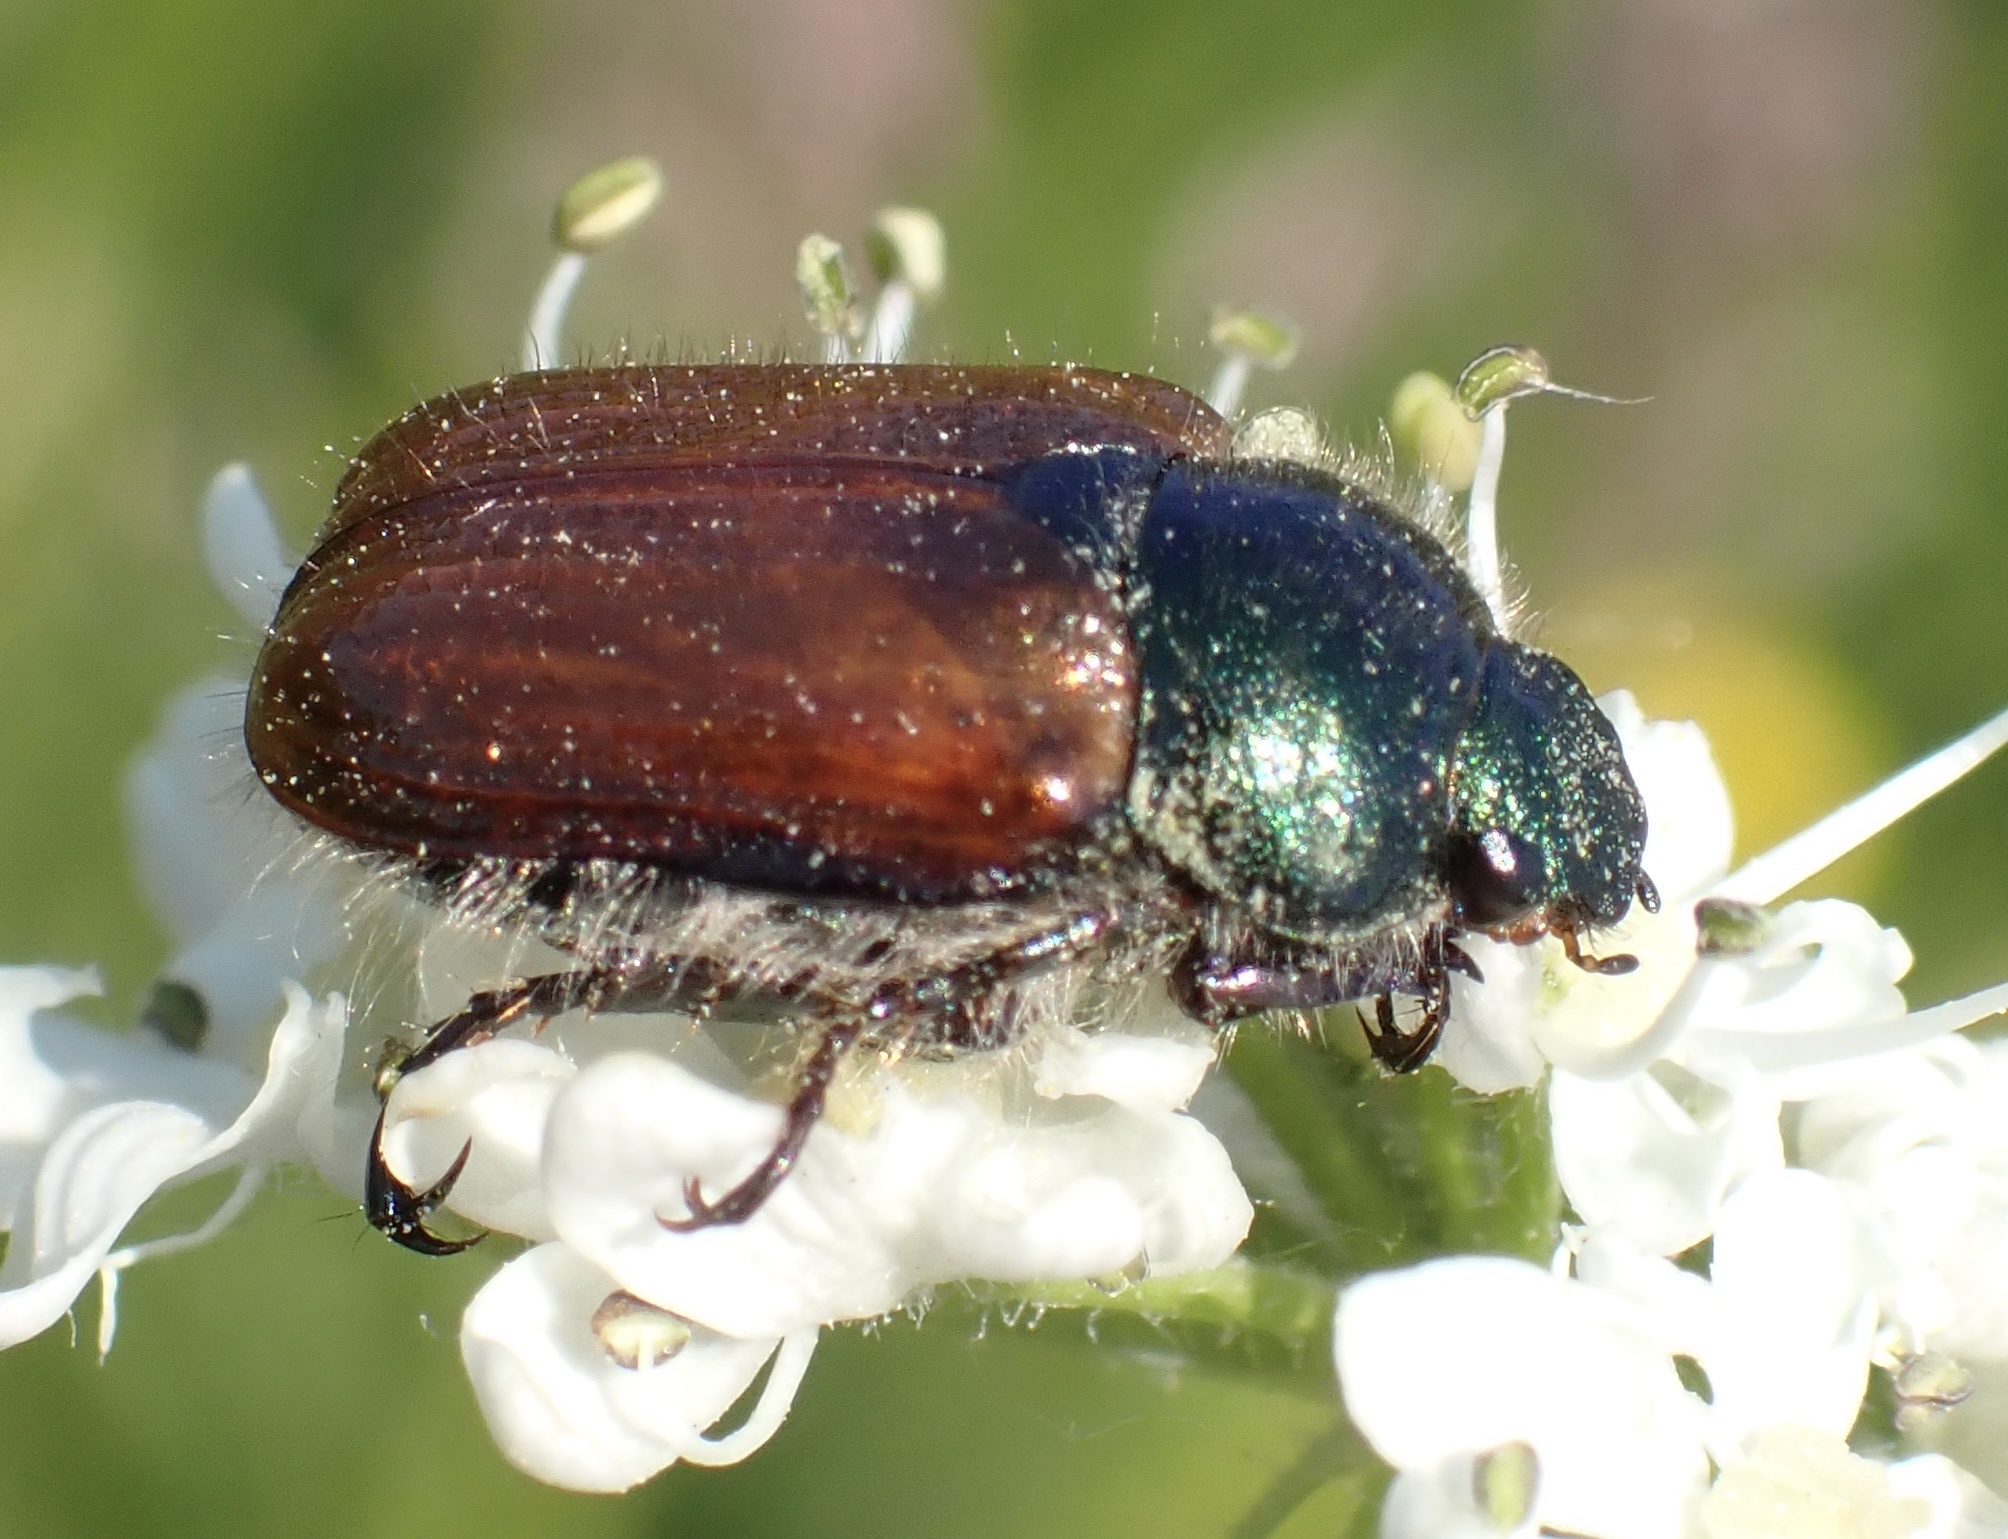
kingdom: Animalia
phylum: Arthropoda
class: Insecta
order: Coleoptera
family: Scarabaeidae
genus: Phyllopertha
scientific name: Phyllopertha horticola
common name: Garden chafer
